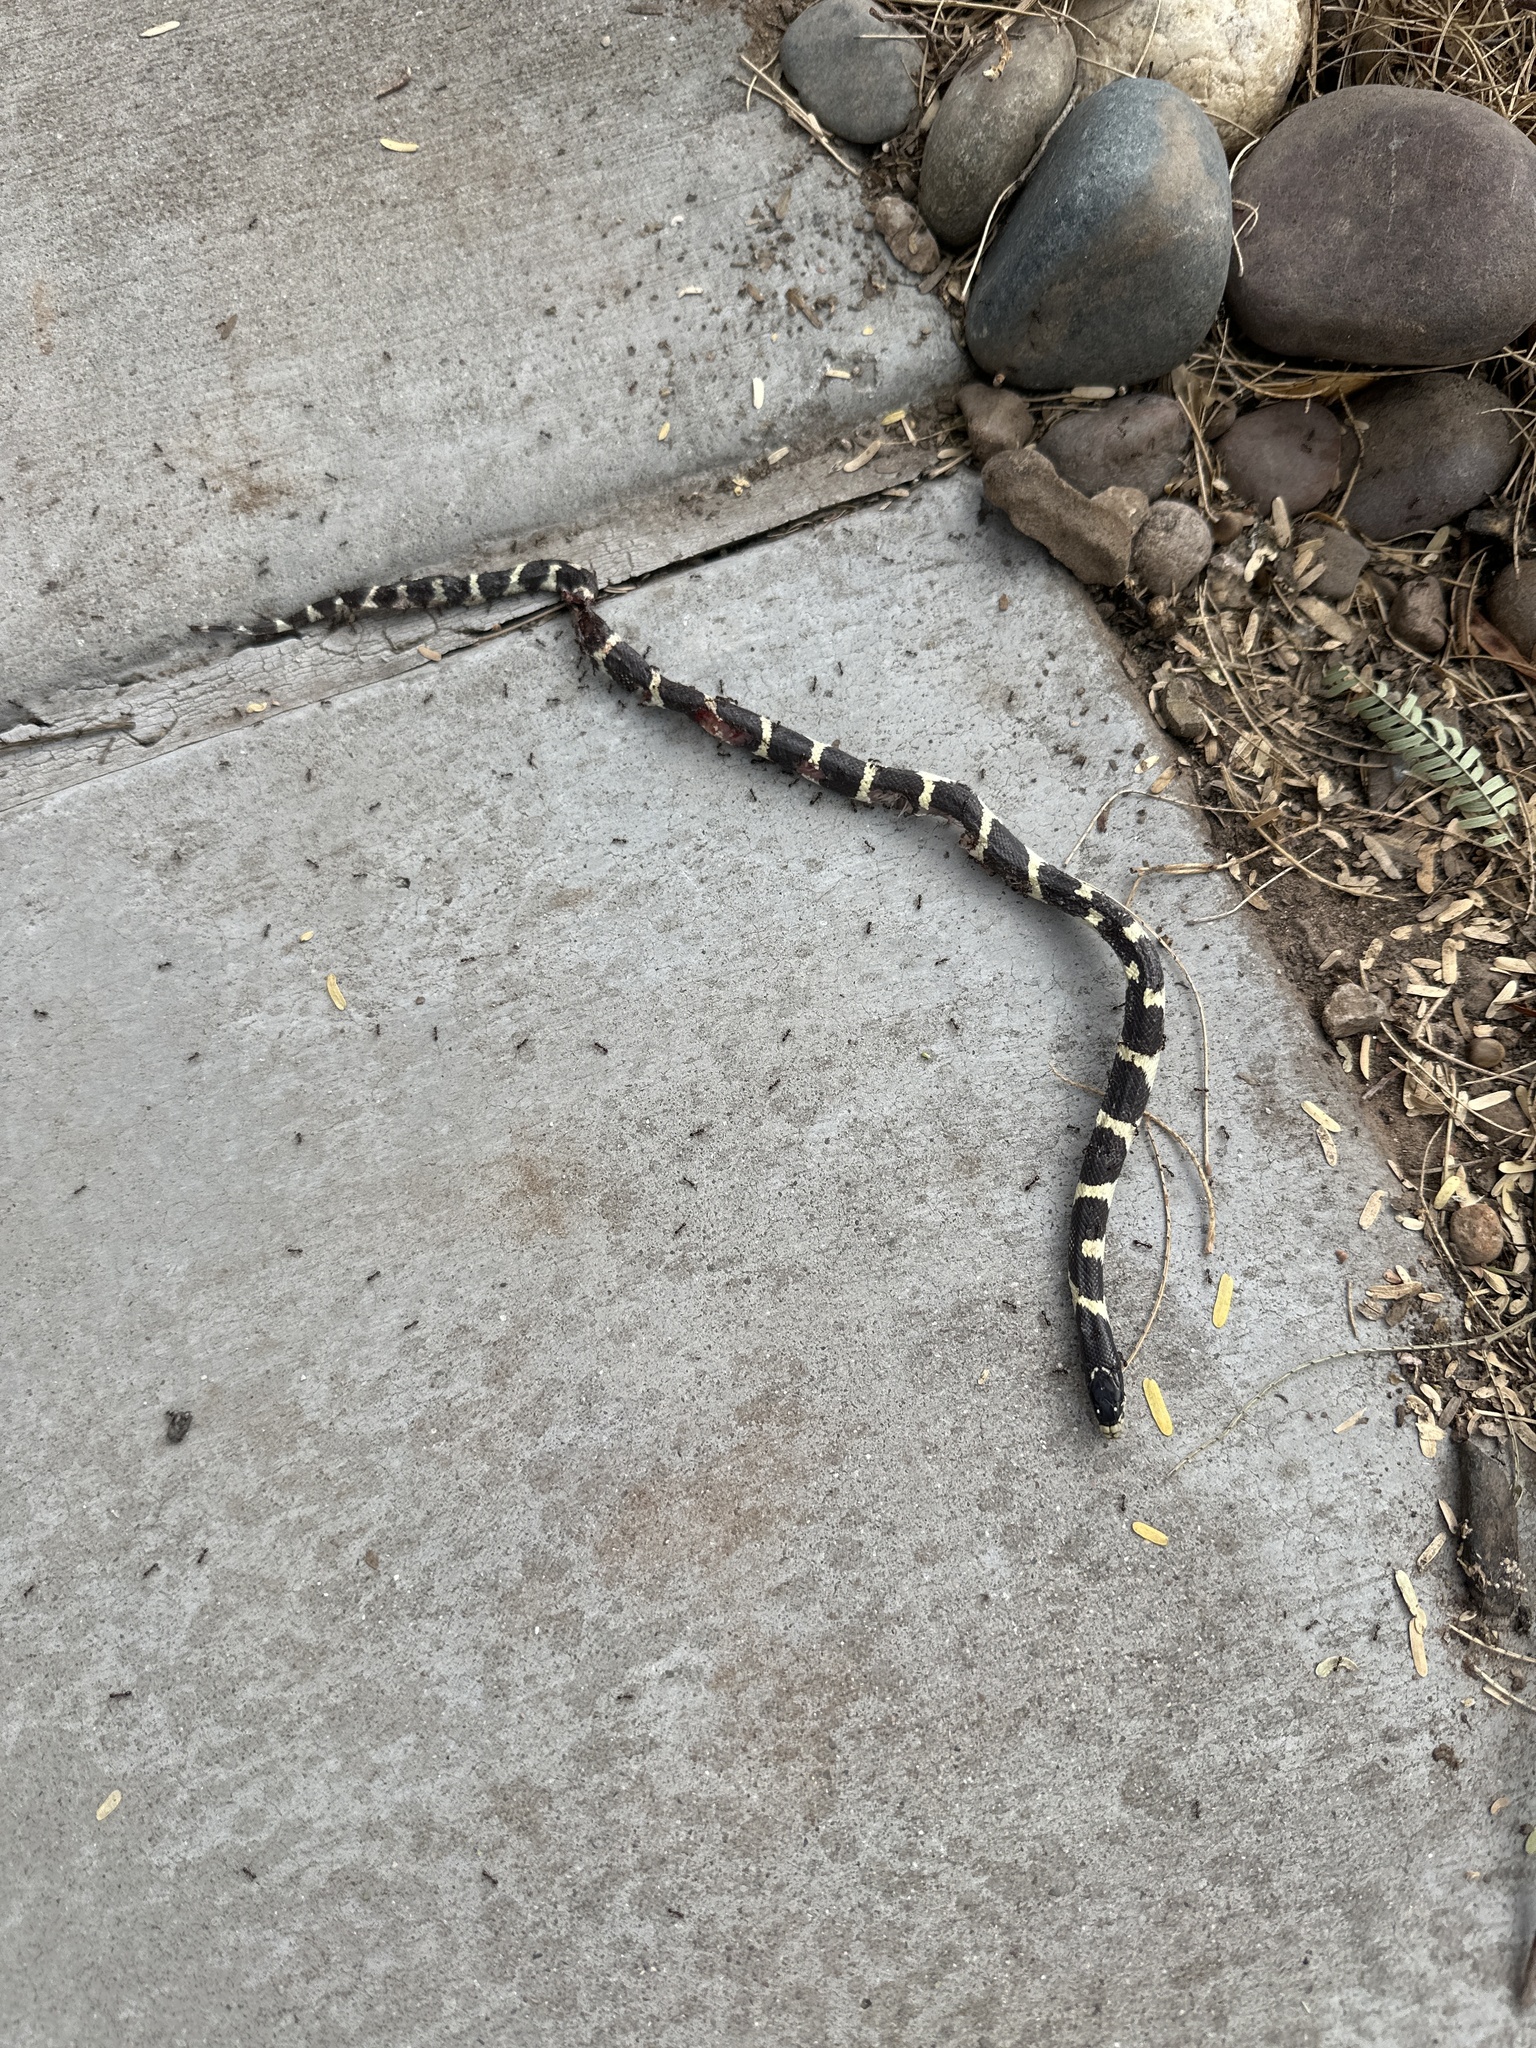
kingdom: Animalia
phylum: Chordata
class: Squamata
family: Colubridae
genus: Lampropeltis
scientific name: Lampropeltis californiae
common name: California kingsnake
